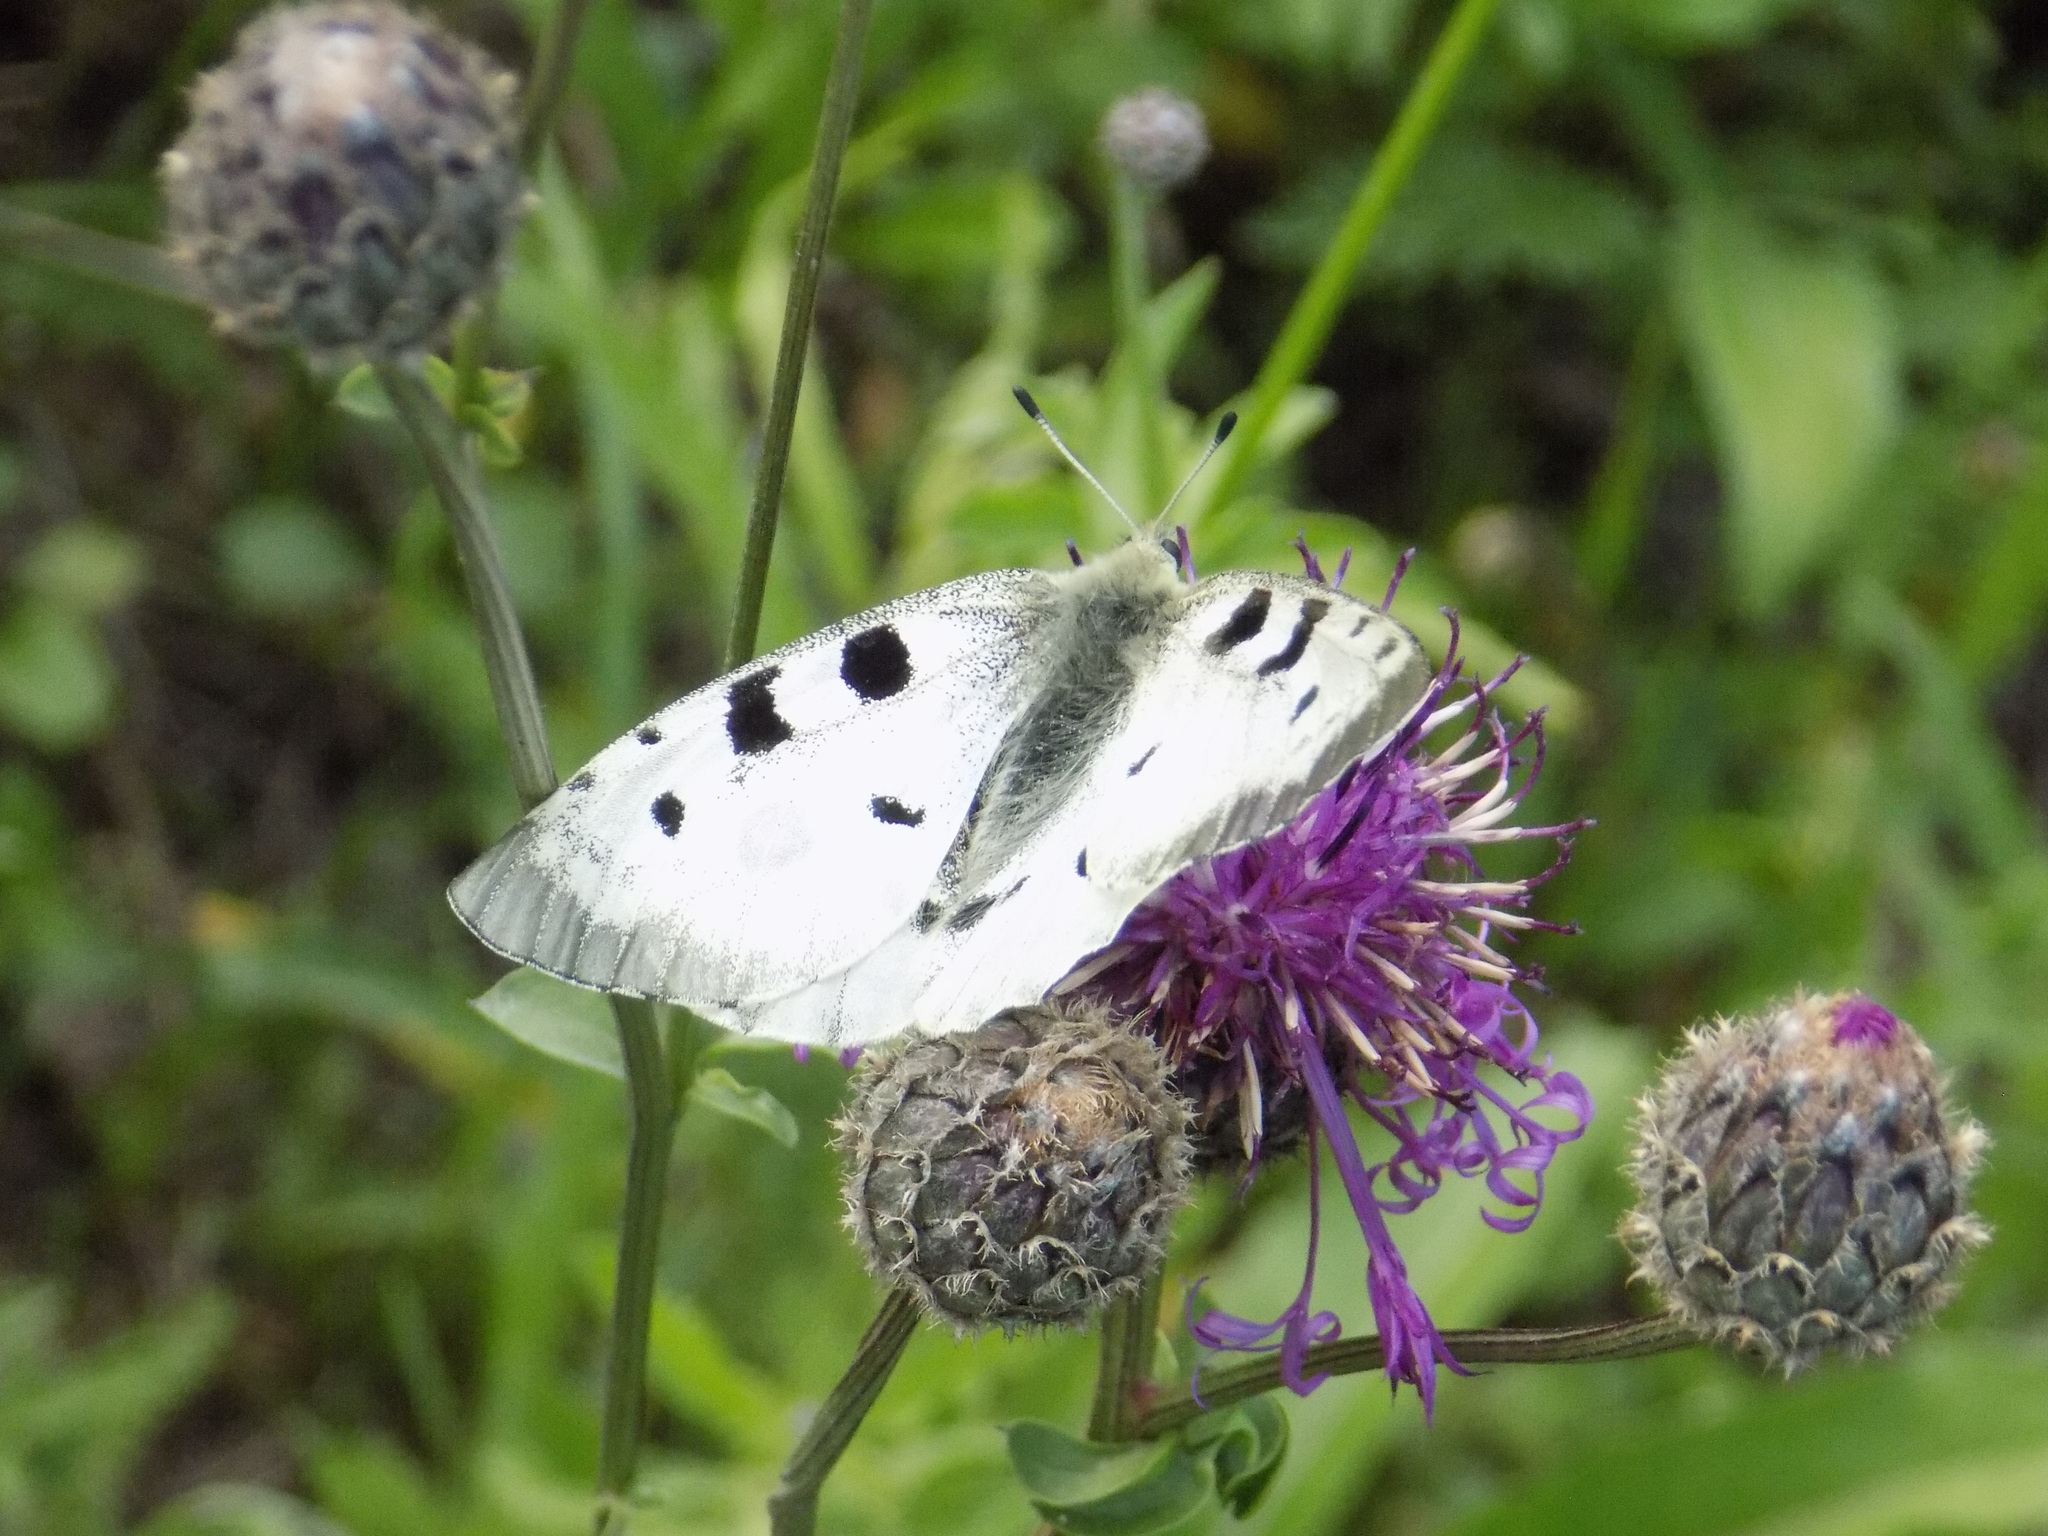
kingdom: Animalia
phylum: Arthropoda
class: Insecta
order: Lepidoptera
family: Papilionidae
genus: Parnassius
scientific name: Parnassius apollo
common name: Apollo
